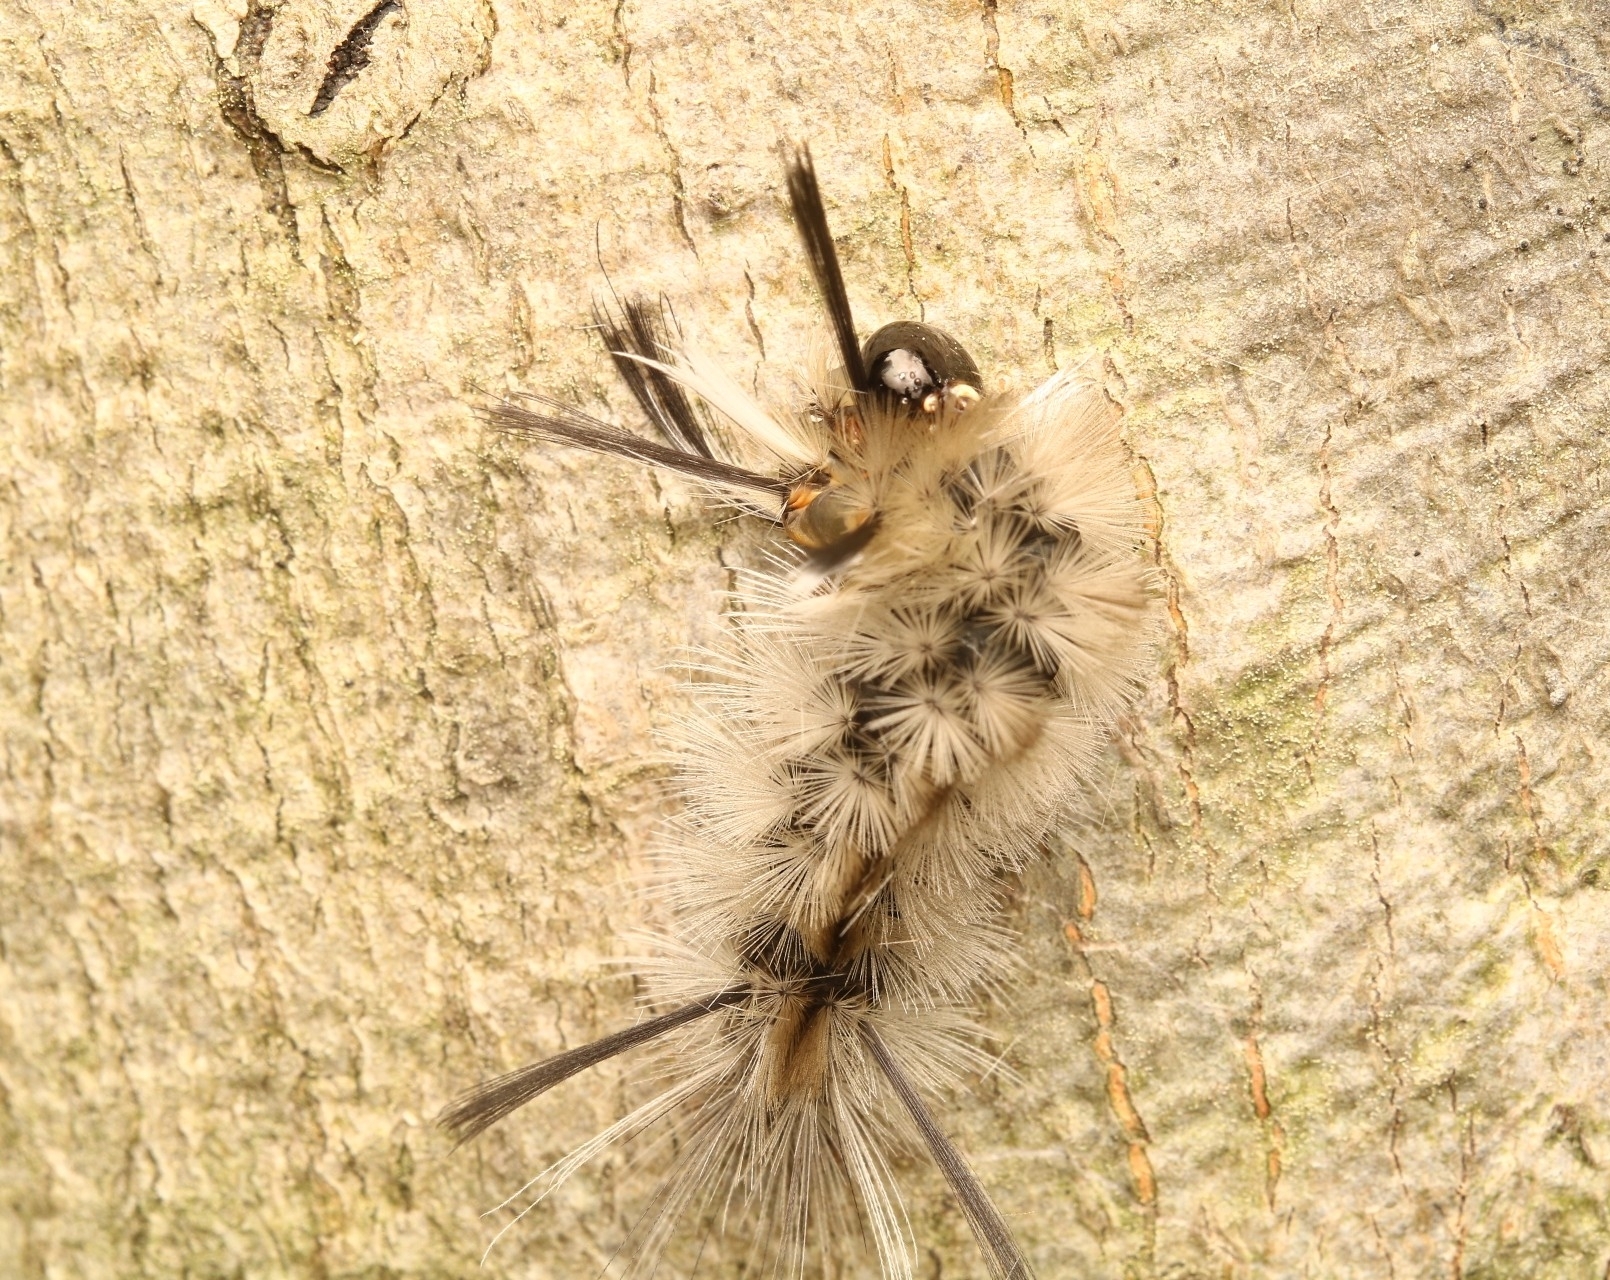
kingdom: Animalia
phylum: Arthropoda
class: Insecta
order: Lepidoptera
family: Erebidae
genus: Halysidota
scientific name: Halysidota tessellaris
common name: Banded tussock moth
